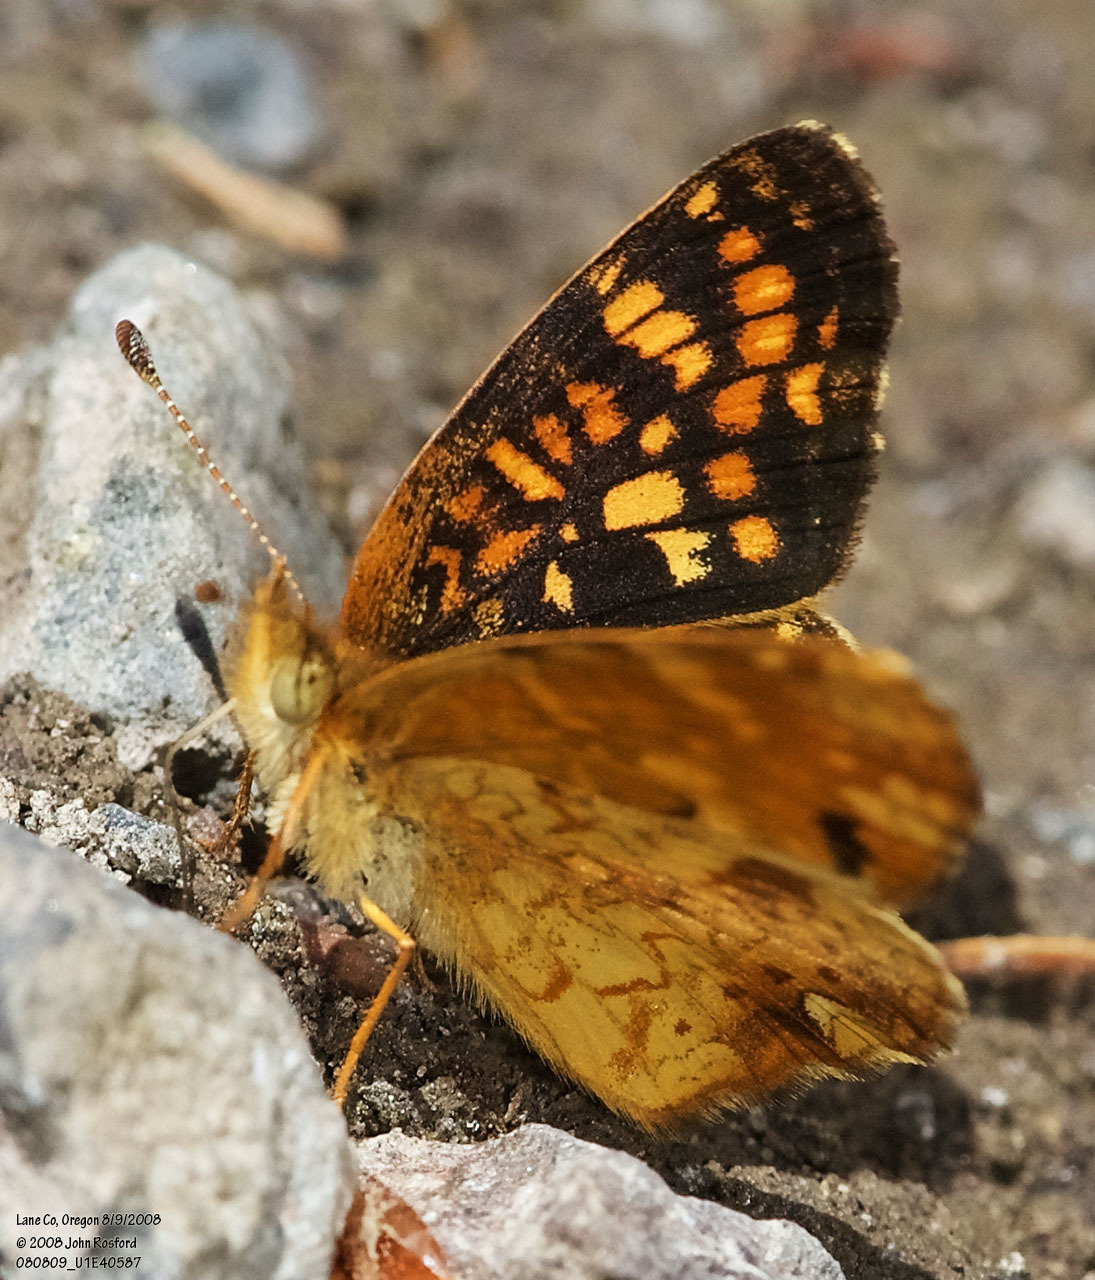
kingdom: Animalia
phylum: Arthropoda
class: Insecta
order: Lepidoptera
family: Nymphalidae
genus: Phyciodes
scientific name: Phyciodes tharos
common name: Pearl crescent
